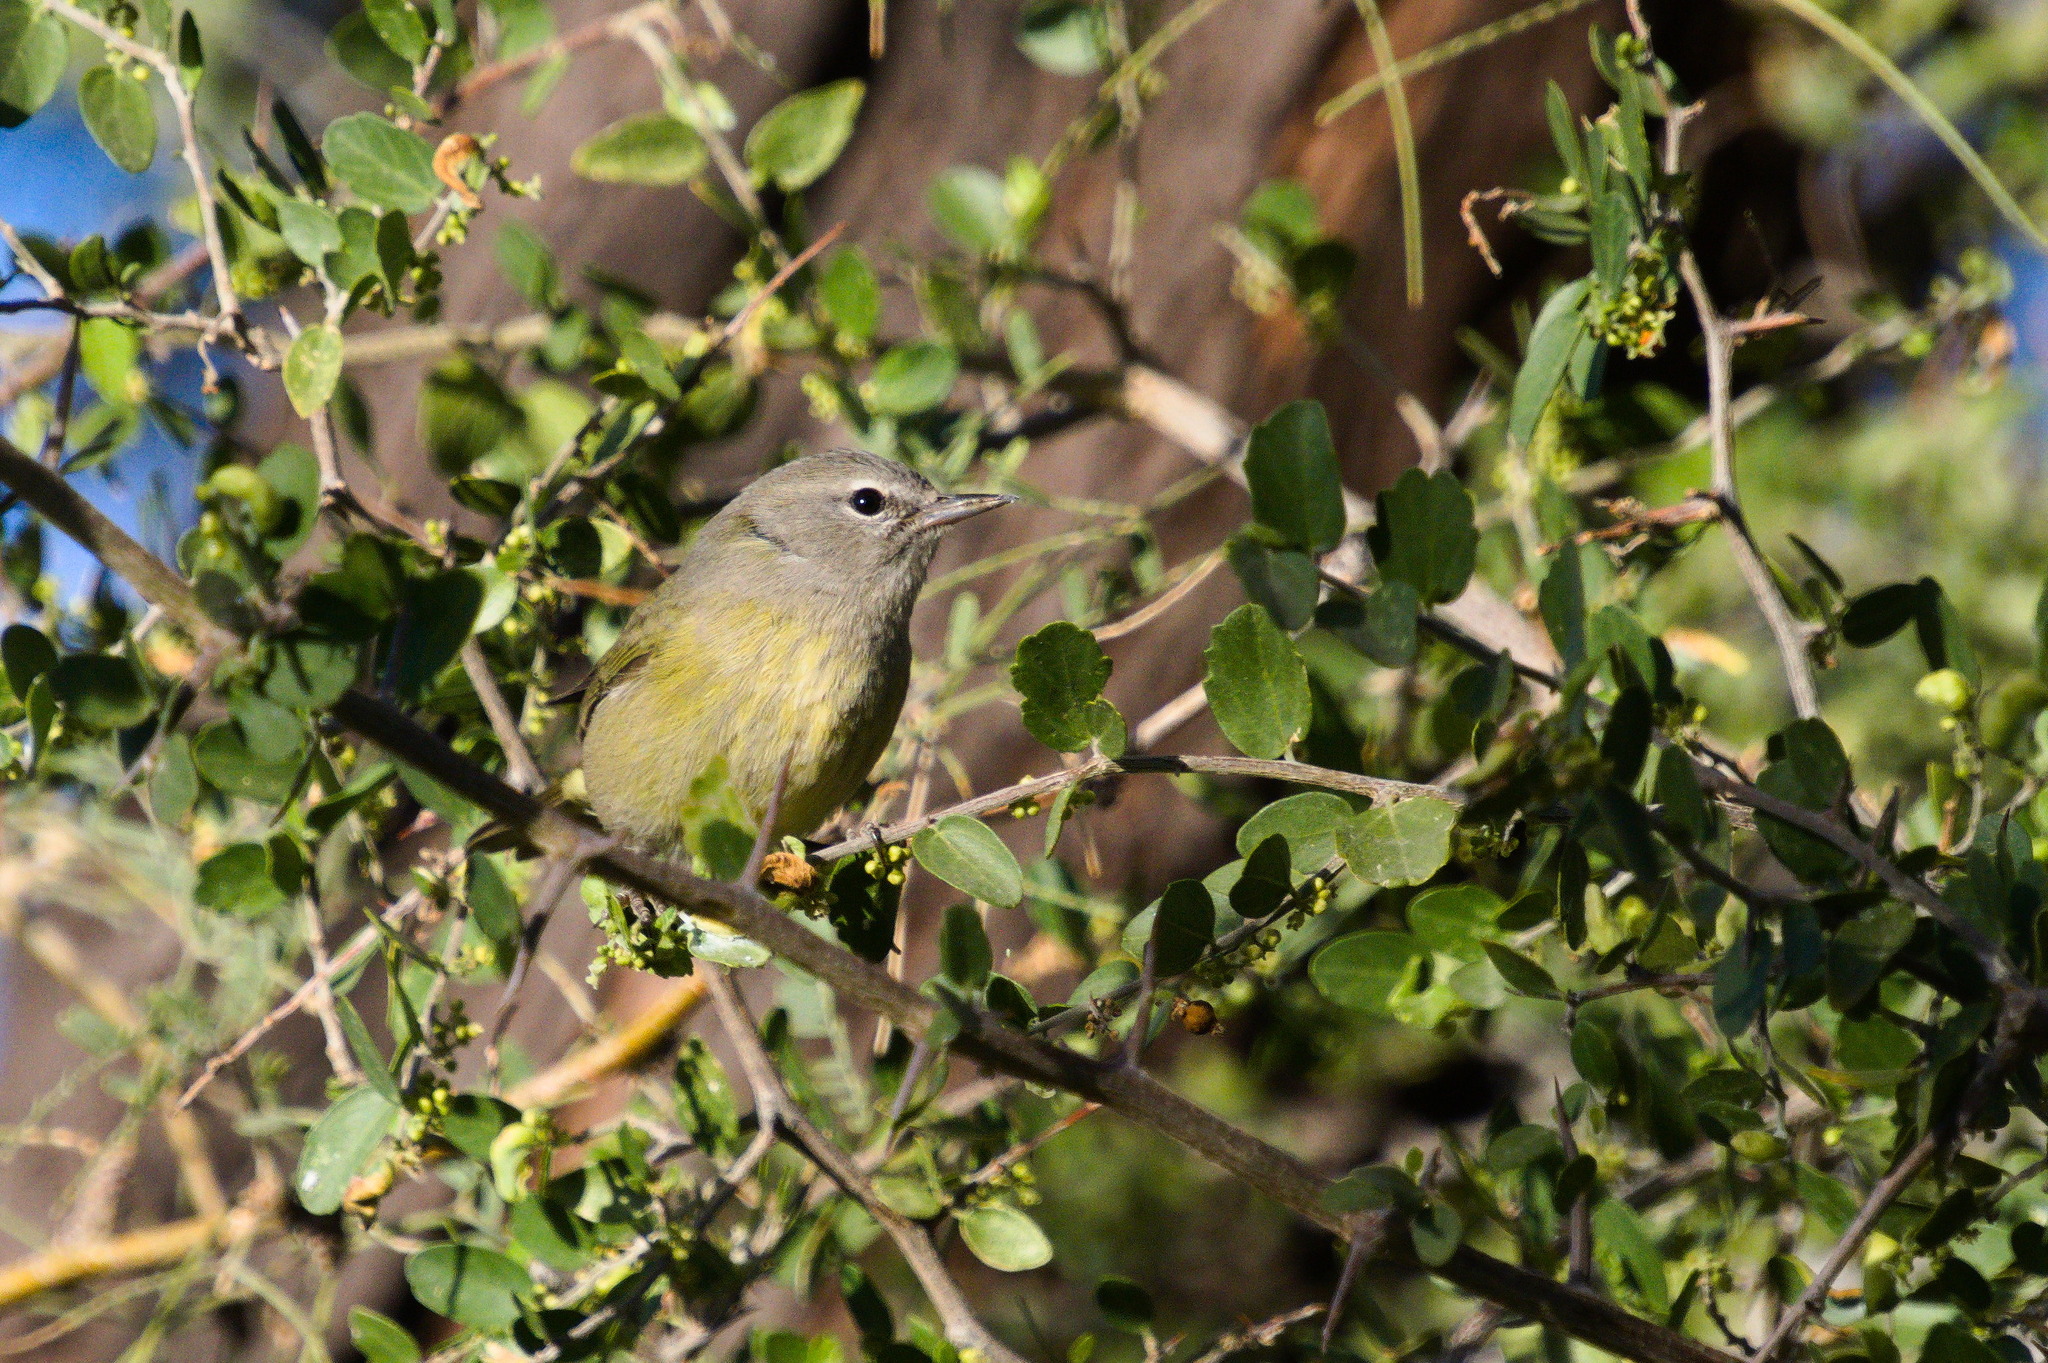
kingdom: Animalia
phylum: Chordata
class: Aves
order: Passeriformes
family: Parulidae
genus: Leiothlypis
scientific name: Leiothlypis celata
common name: Orange-crowned warbler
